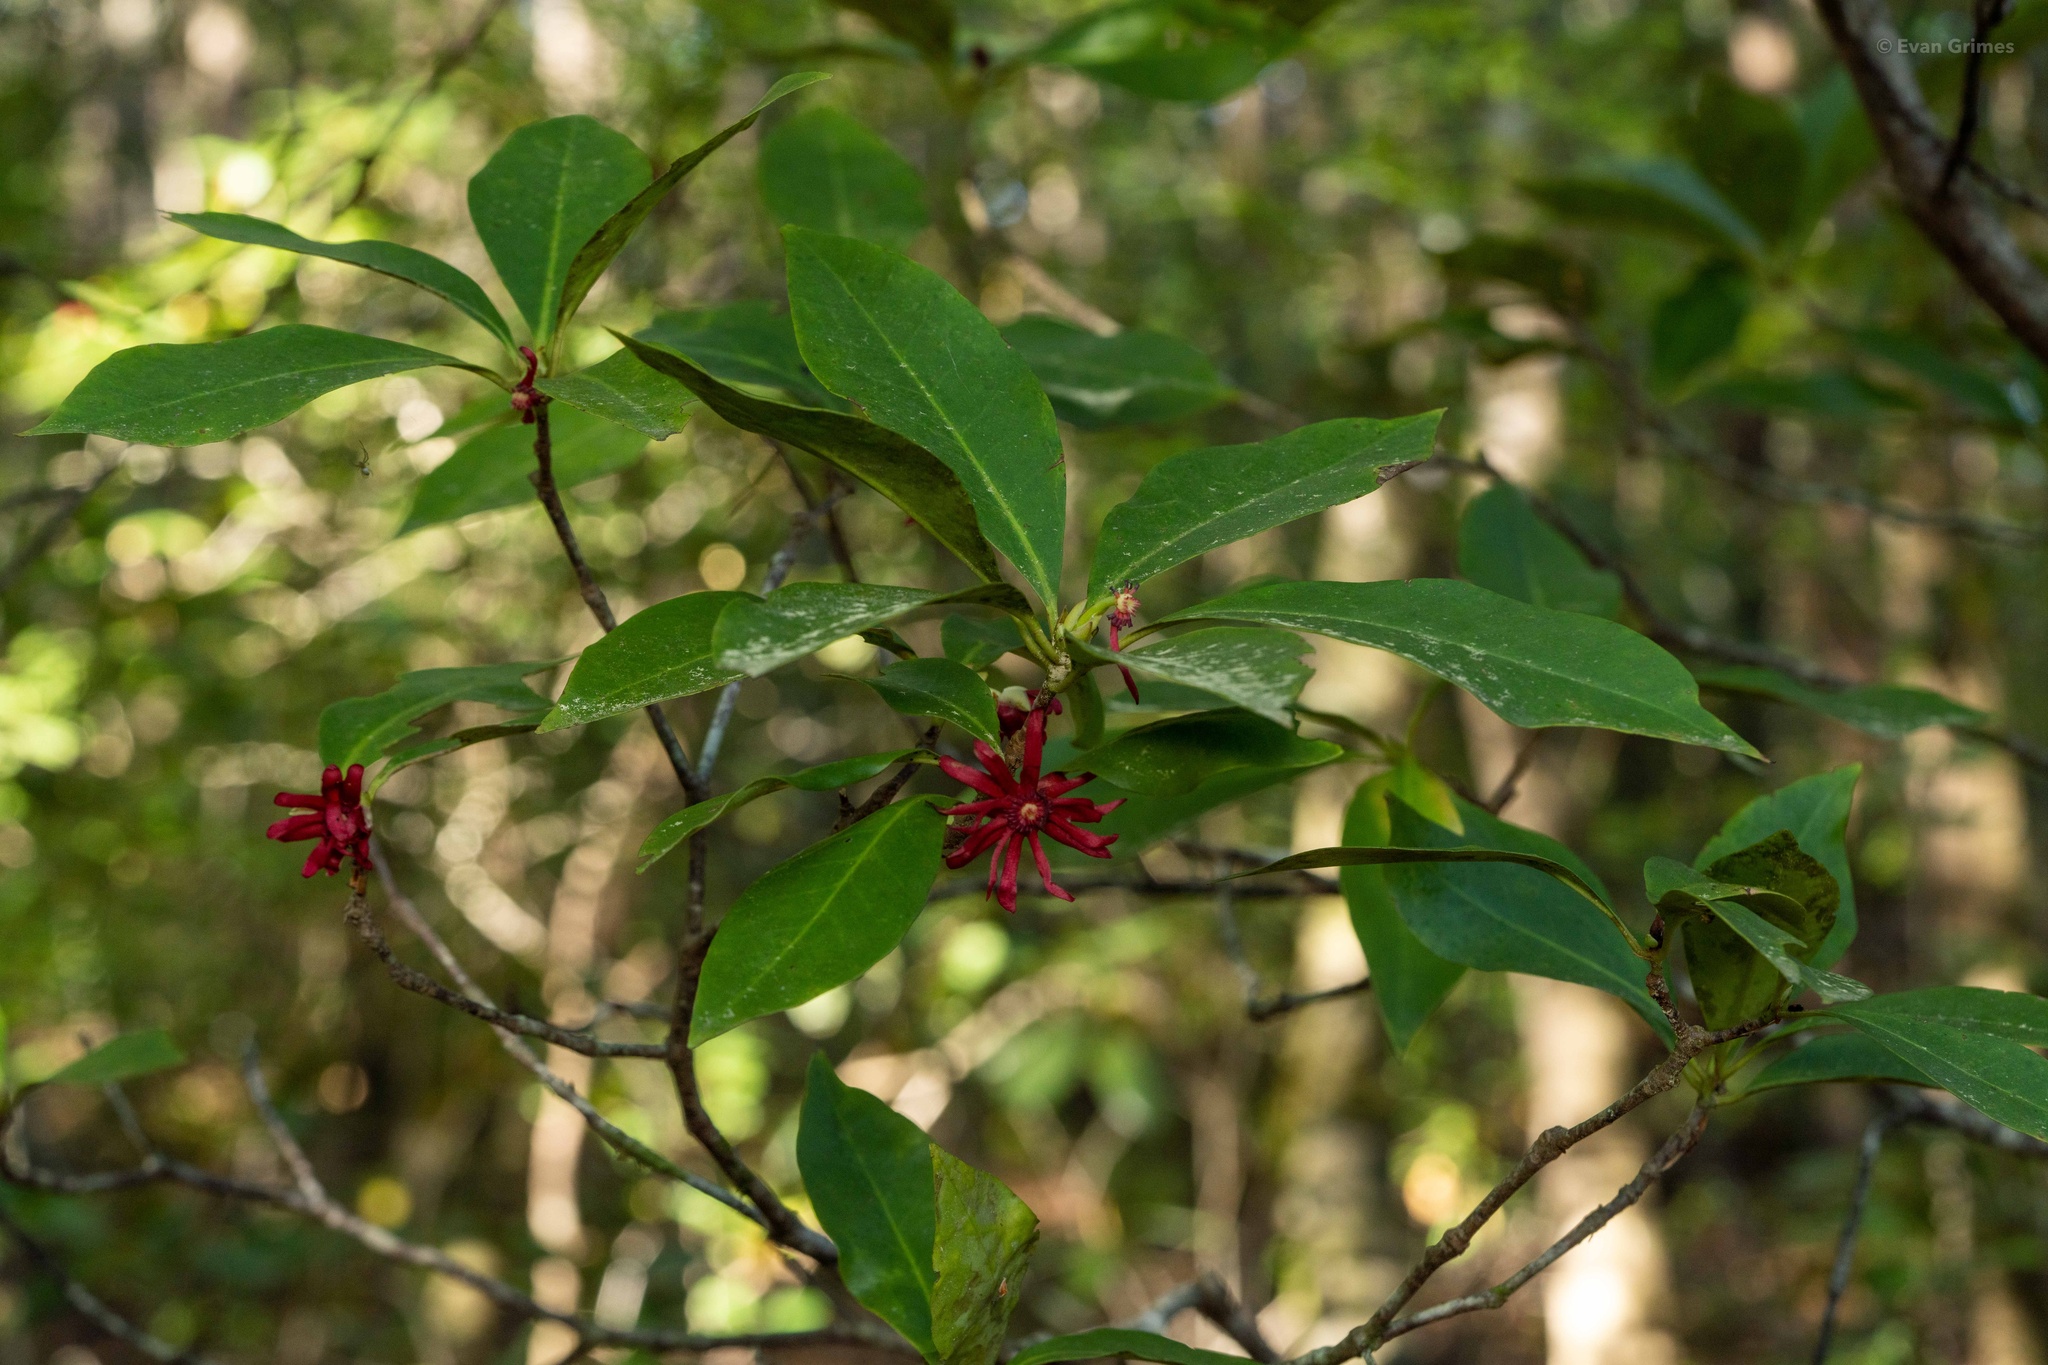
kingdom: Plantae
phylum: Tracheophyta
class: Magnoliopsida
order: Austrobaileyales
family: Schisandraceae
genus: Illicium
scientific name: Illicium floridanum
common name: Florida anisetree
